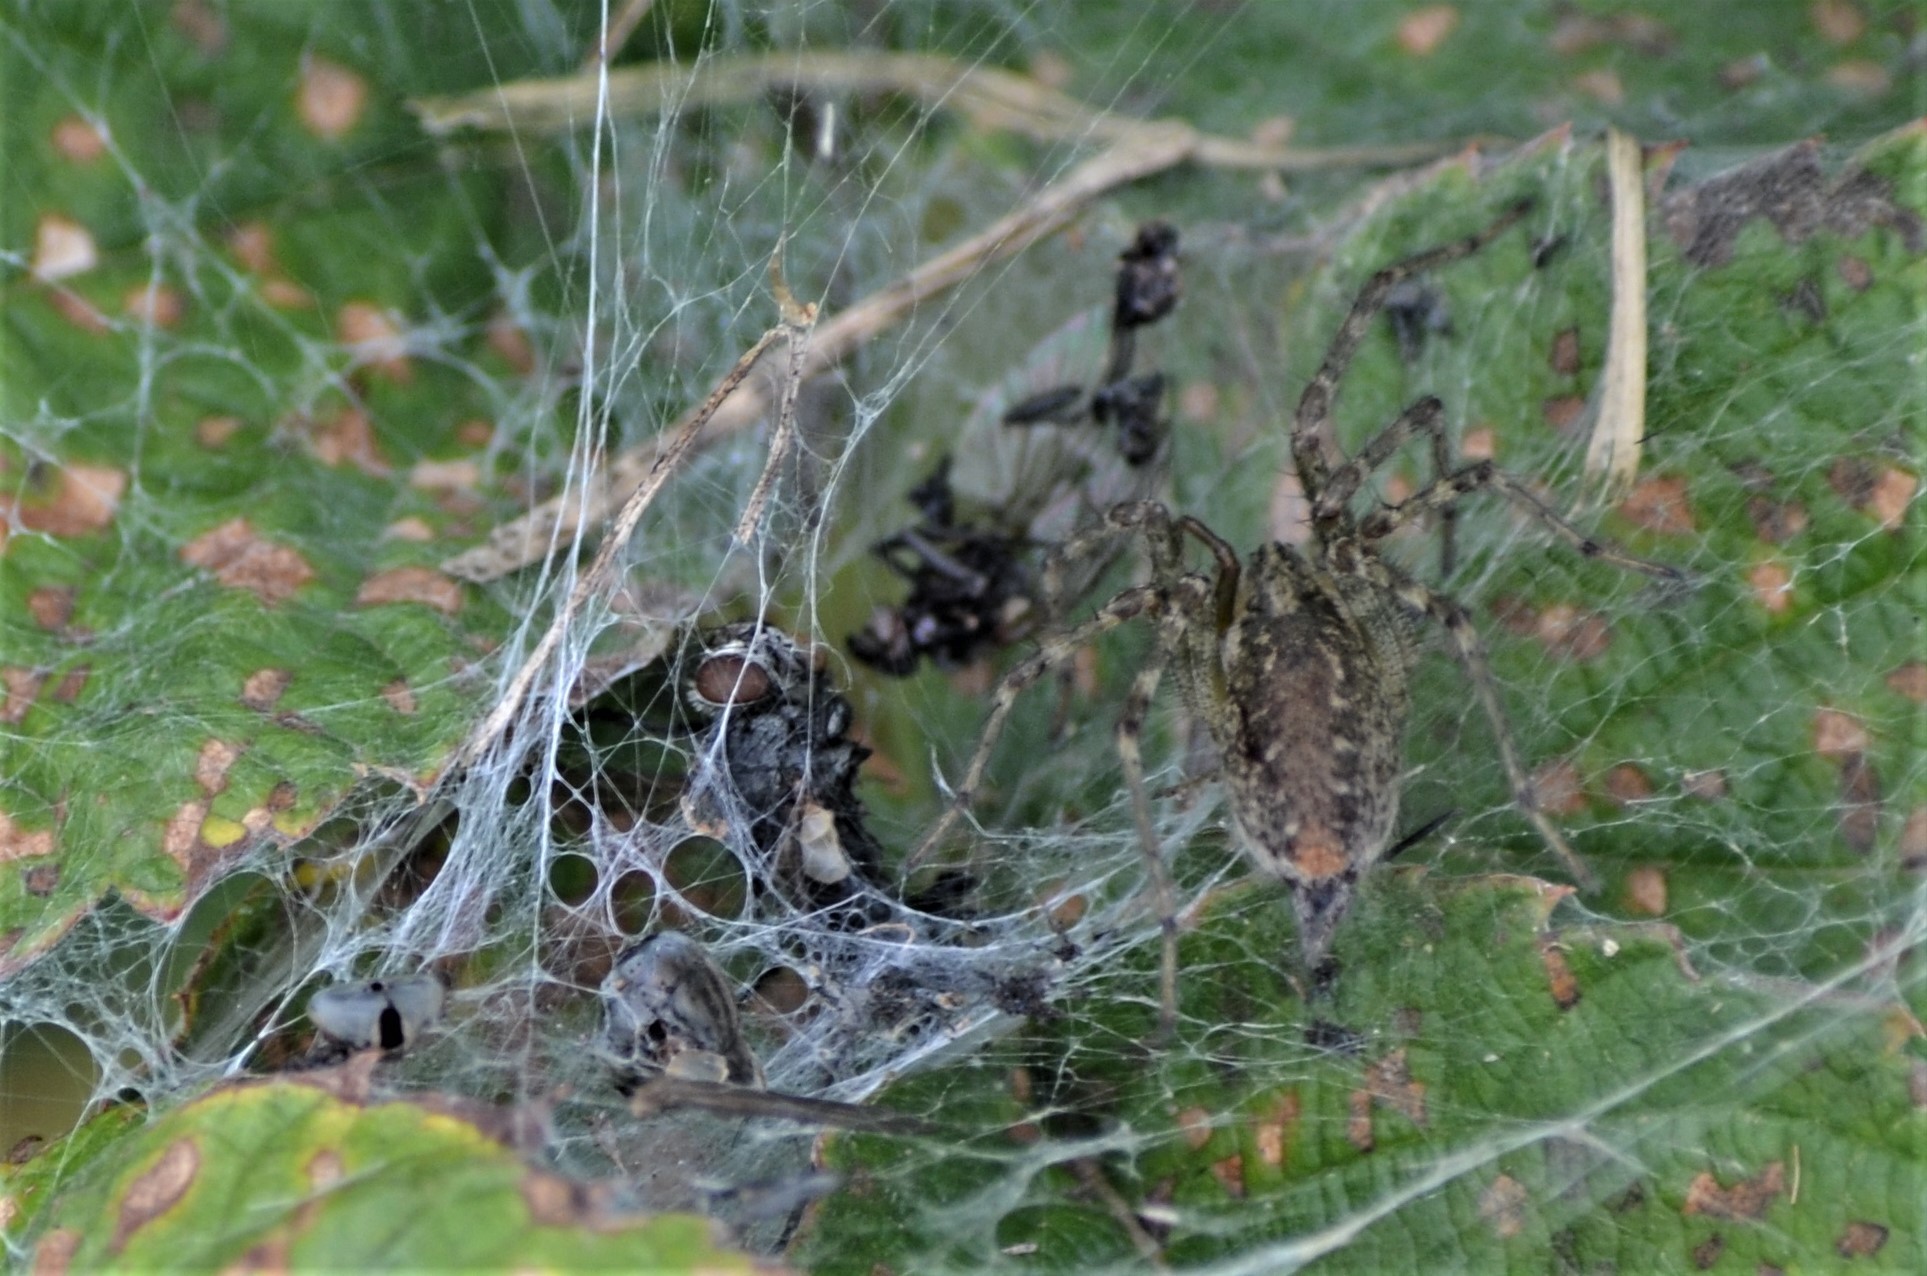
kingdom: Animalia
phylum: Arthropoda
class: Arachnida
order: Araneae
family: Agelenidae
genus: Allagelena
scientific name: Allagelena gracilens
